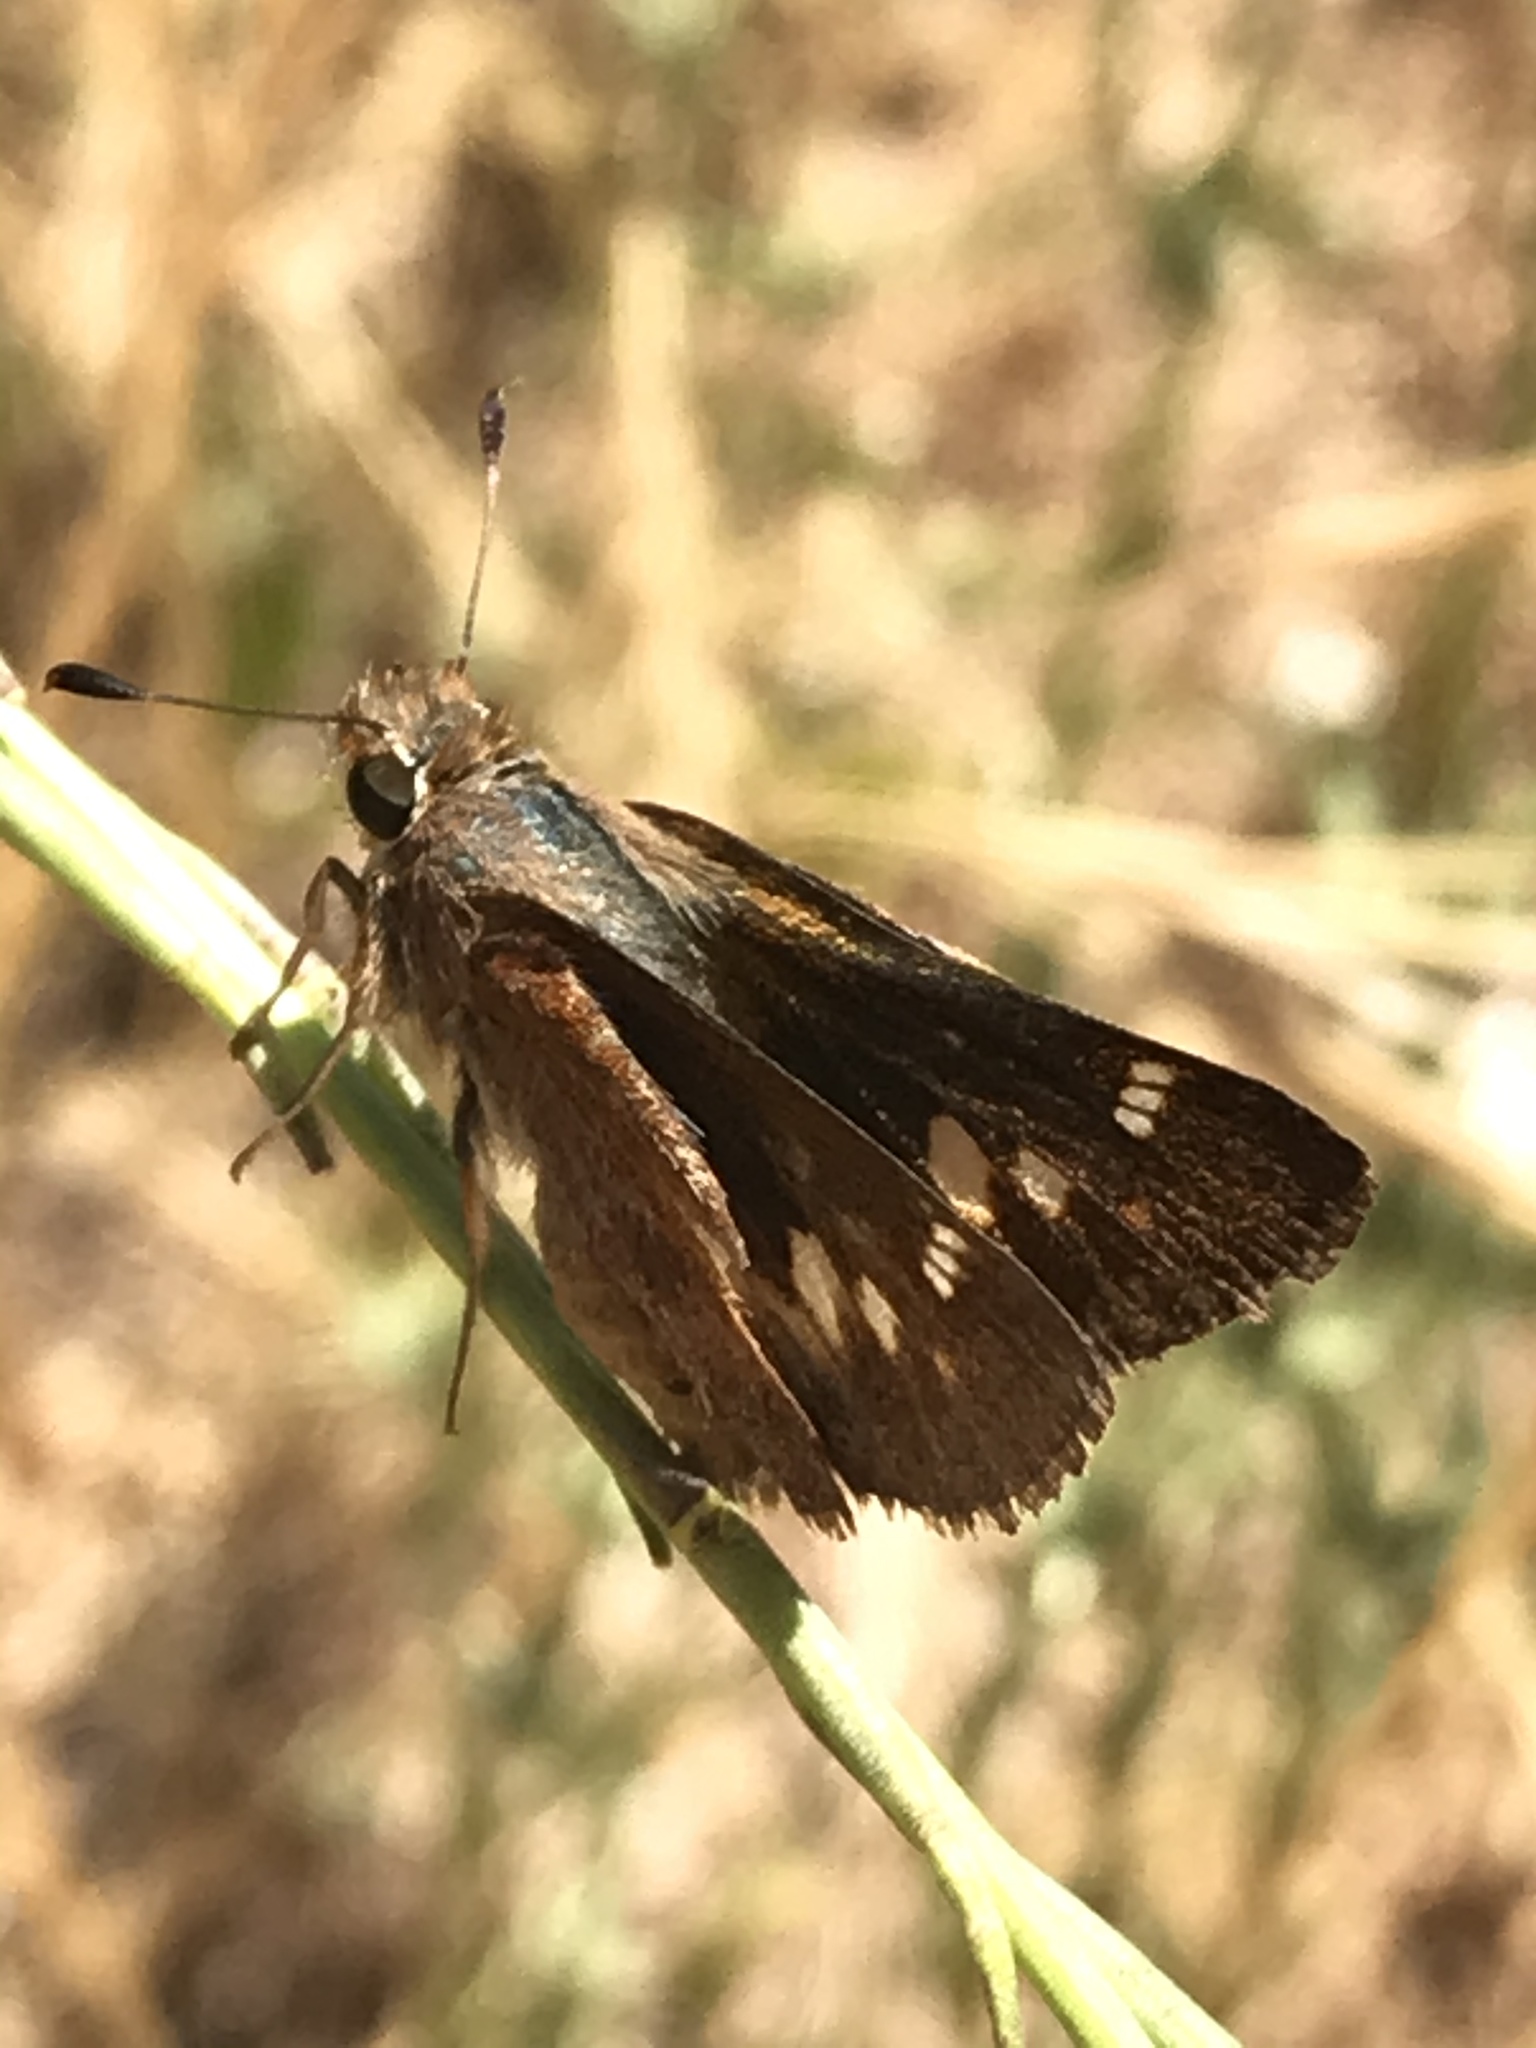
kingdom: Animalia
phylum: Arthropoda
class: Insecta
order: Lepidoptera
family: Hesperiidae
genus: Lon
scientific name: Lon melane
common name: Umber skipper
